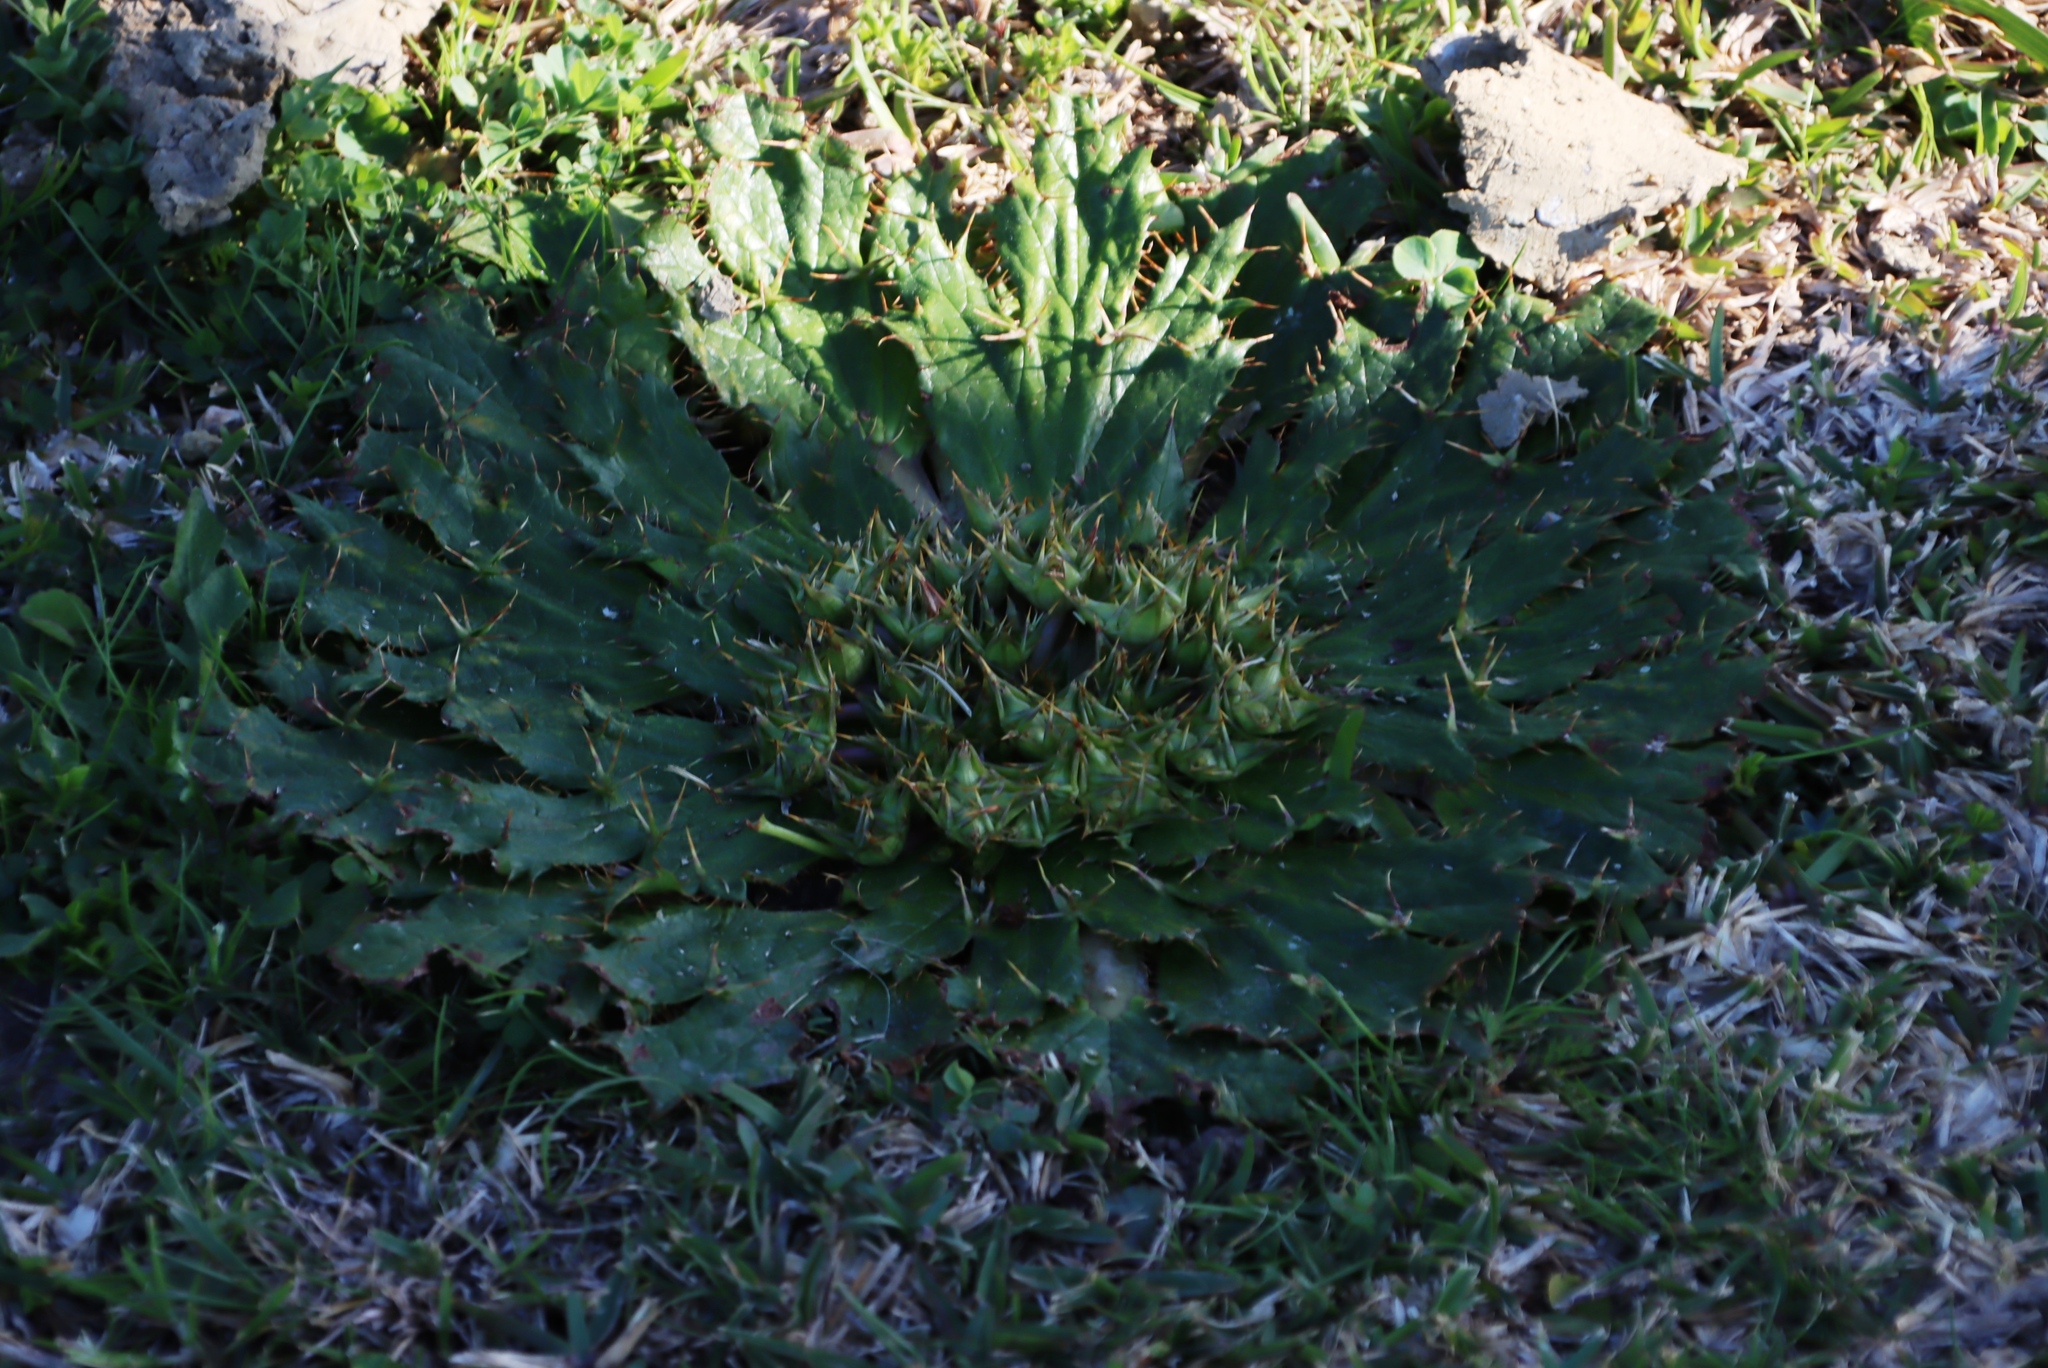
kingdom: Plantae
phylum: Tracheophyta
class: Magnoliopsida
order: Apiales
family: Apiaceae
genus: Arctopus
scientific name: Arctopus echinatus
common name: Platdoring
